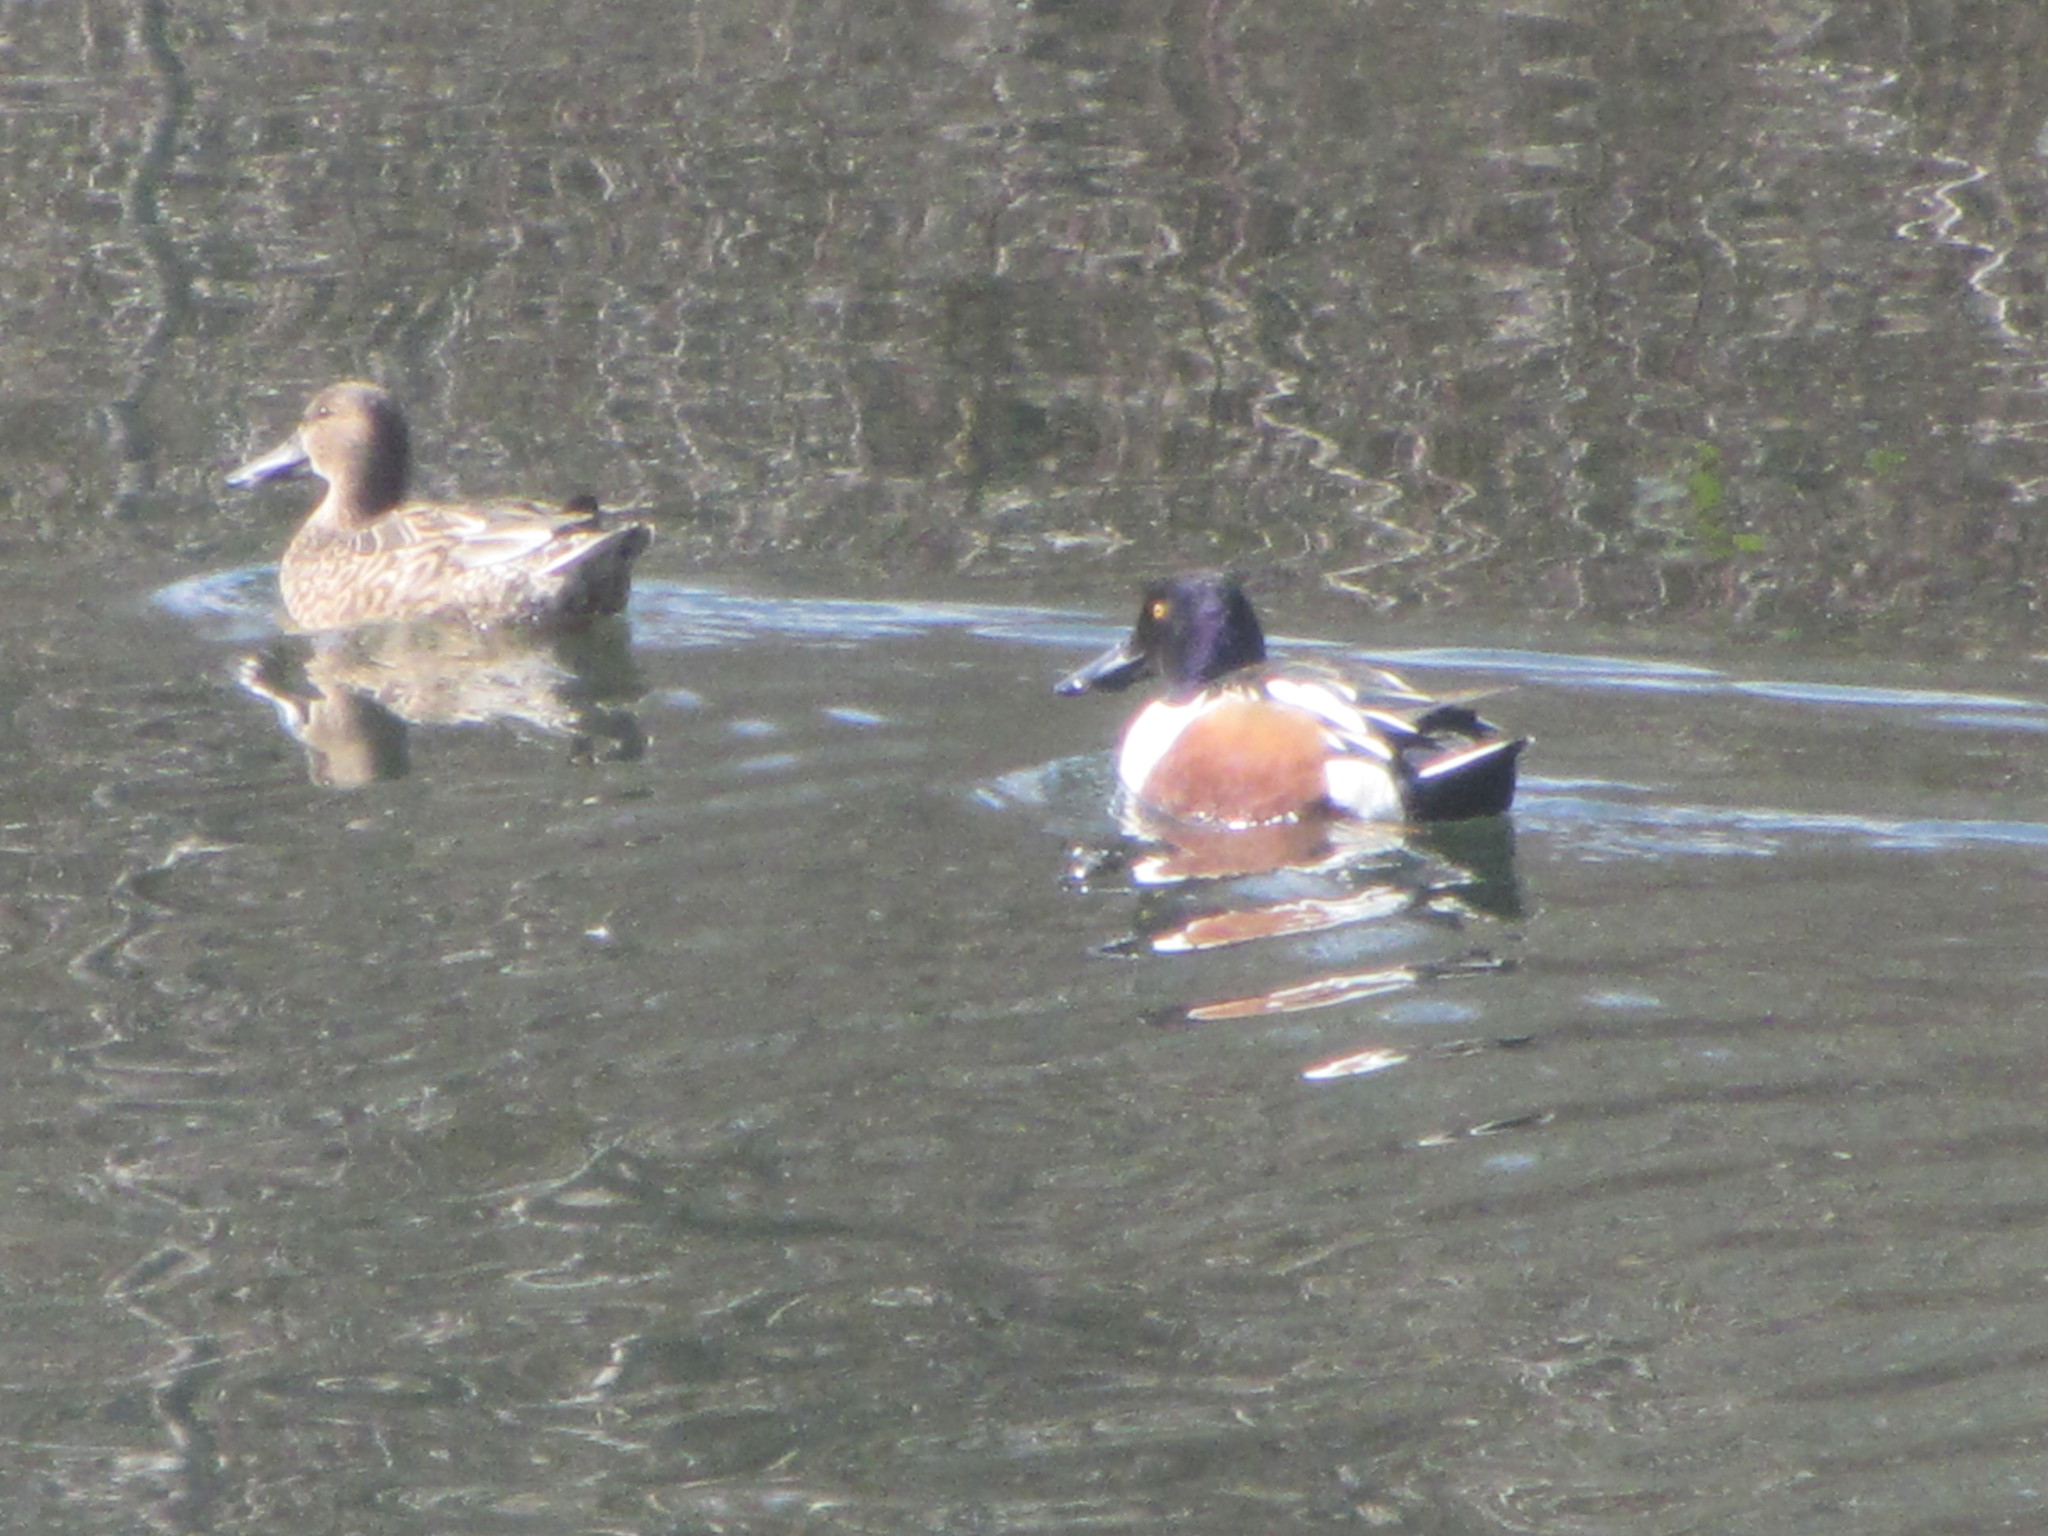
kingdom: Animalia
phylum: Chordata
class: Aves
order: Anseriformes
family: Anatidae
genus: Spatula
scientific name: Spatula clypeata
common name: Northern shoveler
